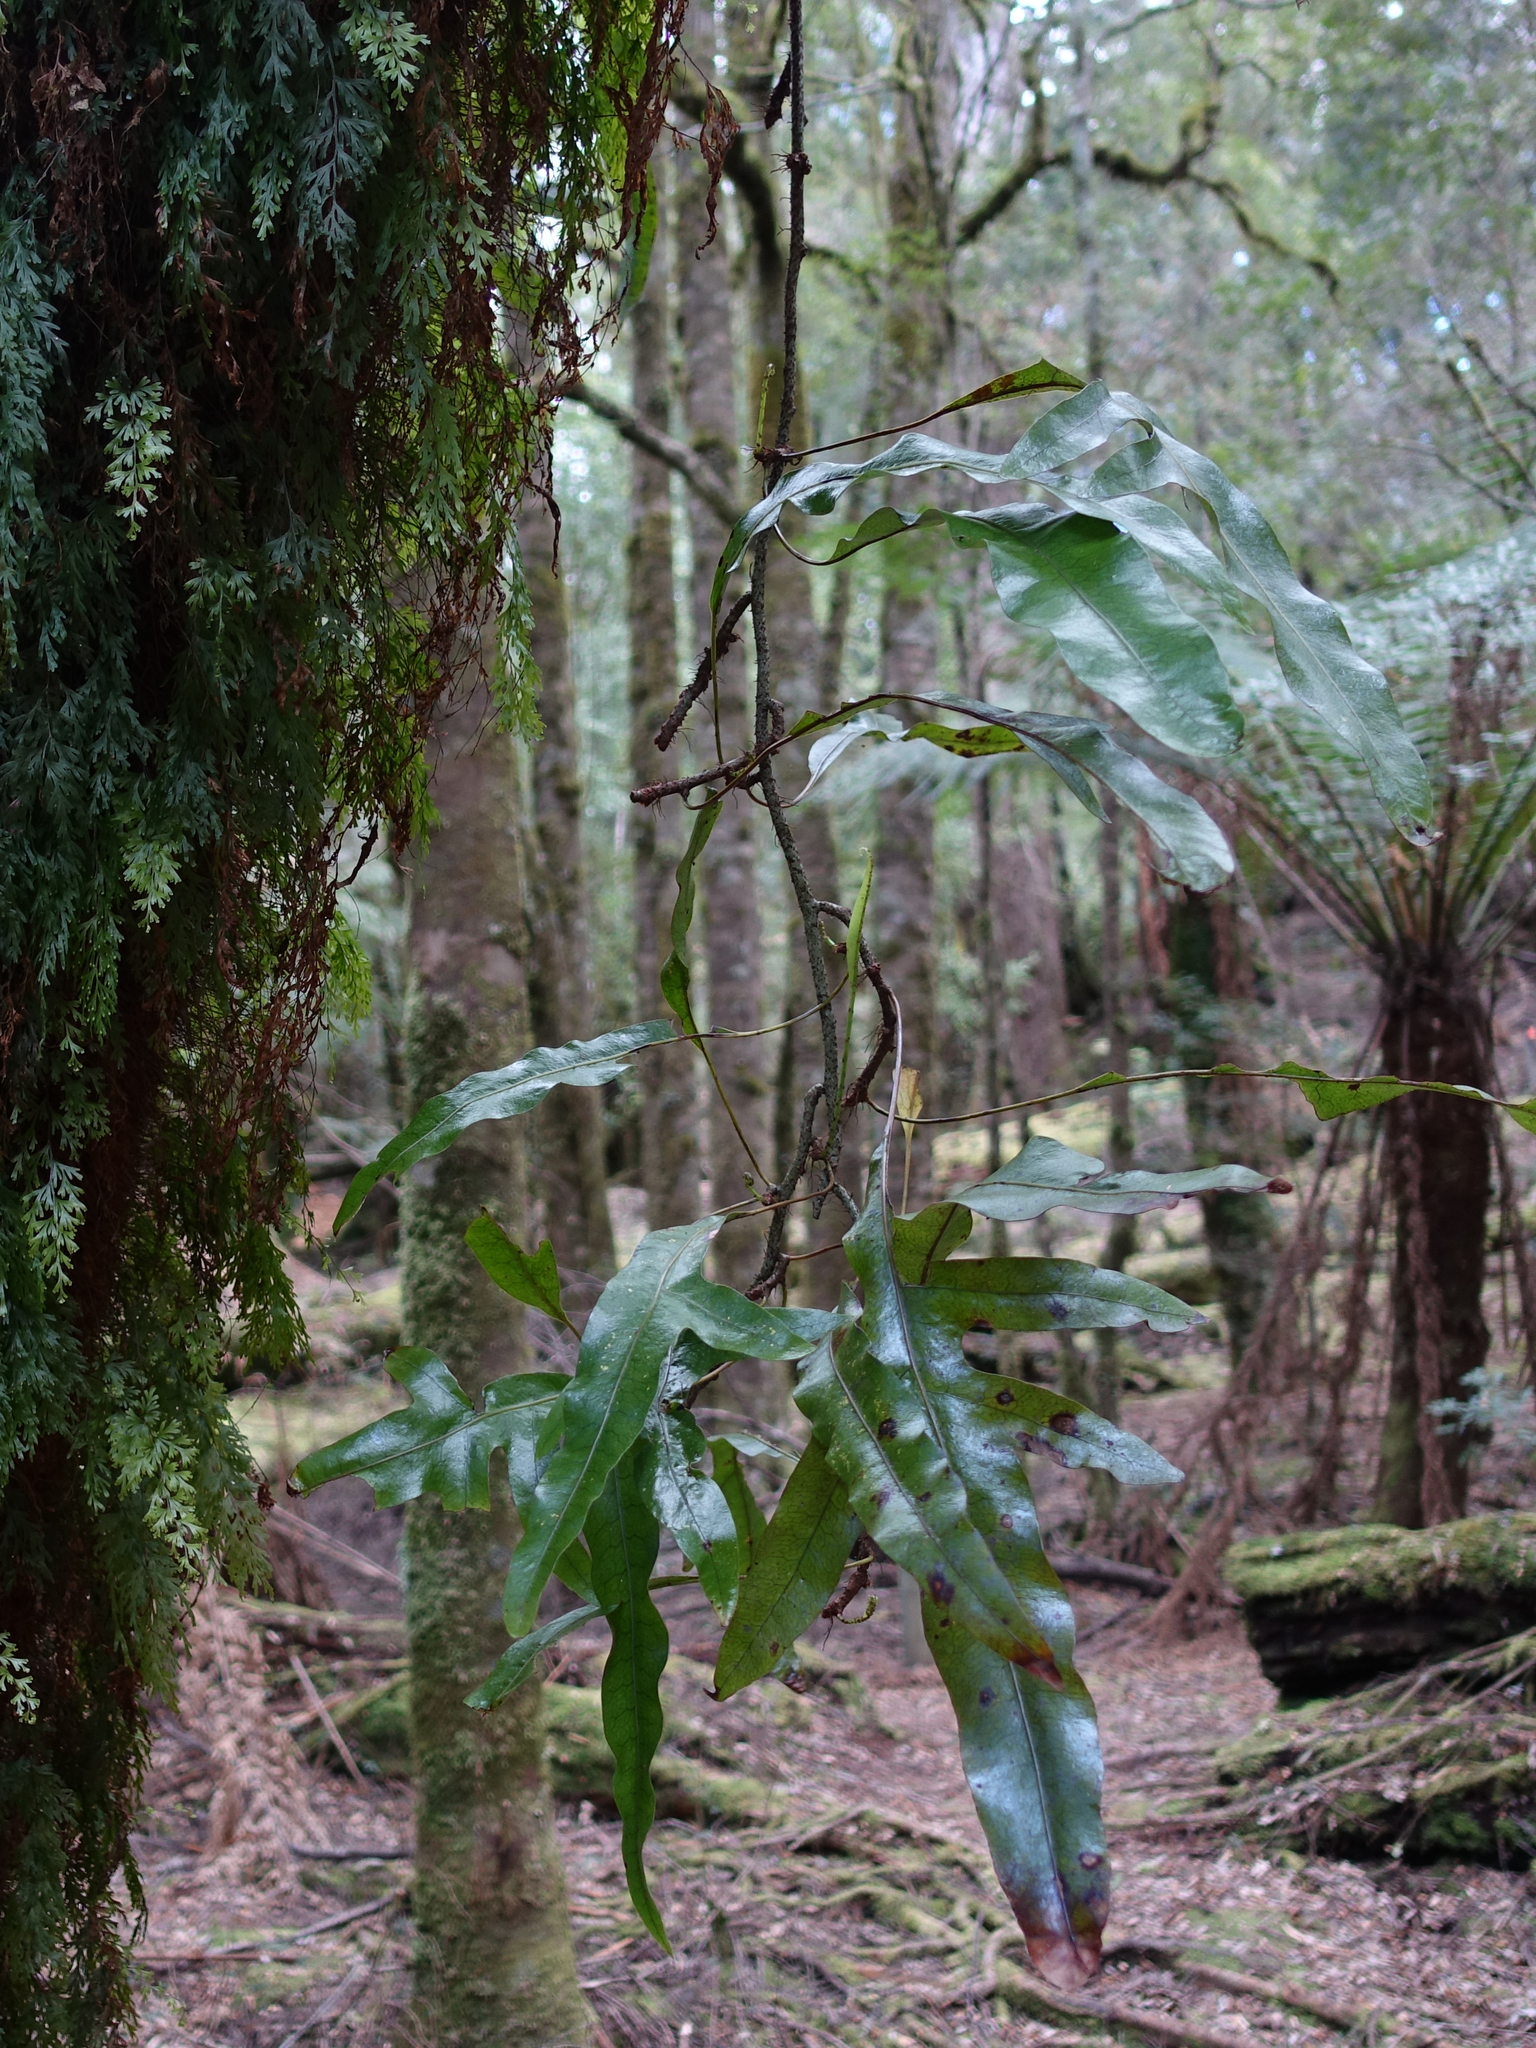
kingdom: Plantae
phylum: Tracheophyta
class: Polypodiopsida
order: Polypodiales
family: Polypodiaceae
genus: Lecanopteris
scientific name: Lecanopteris pustulata
